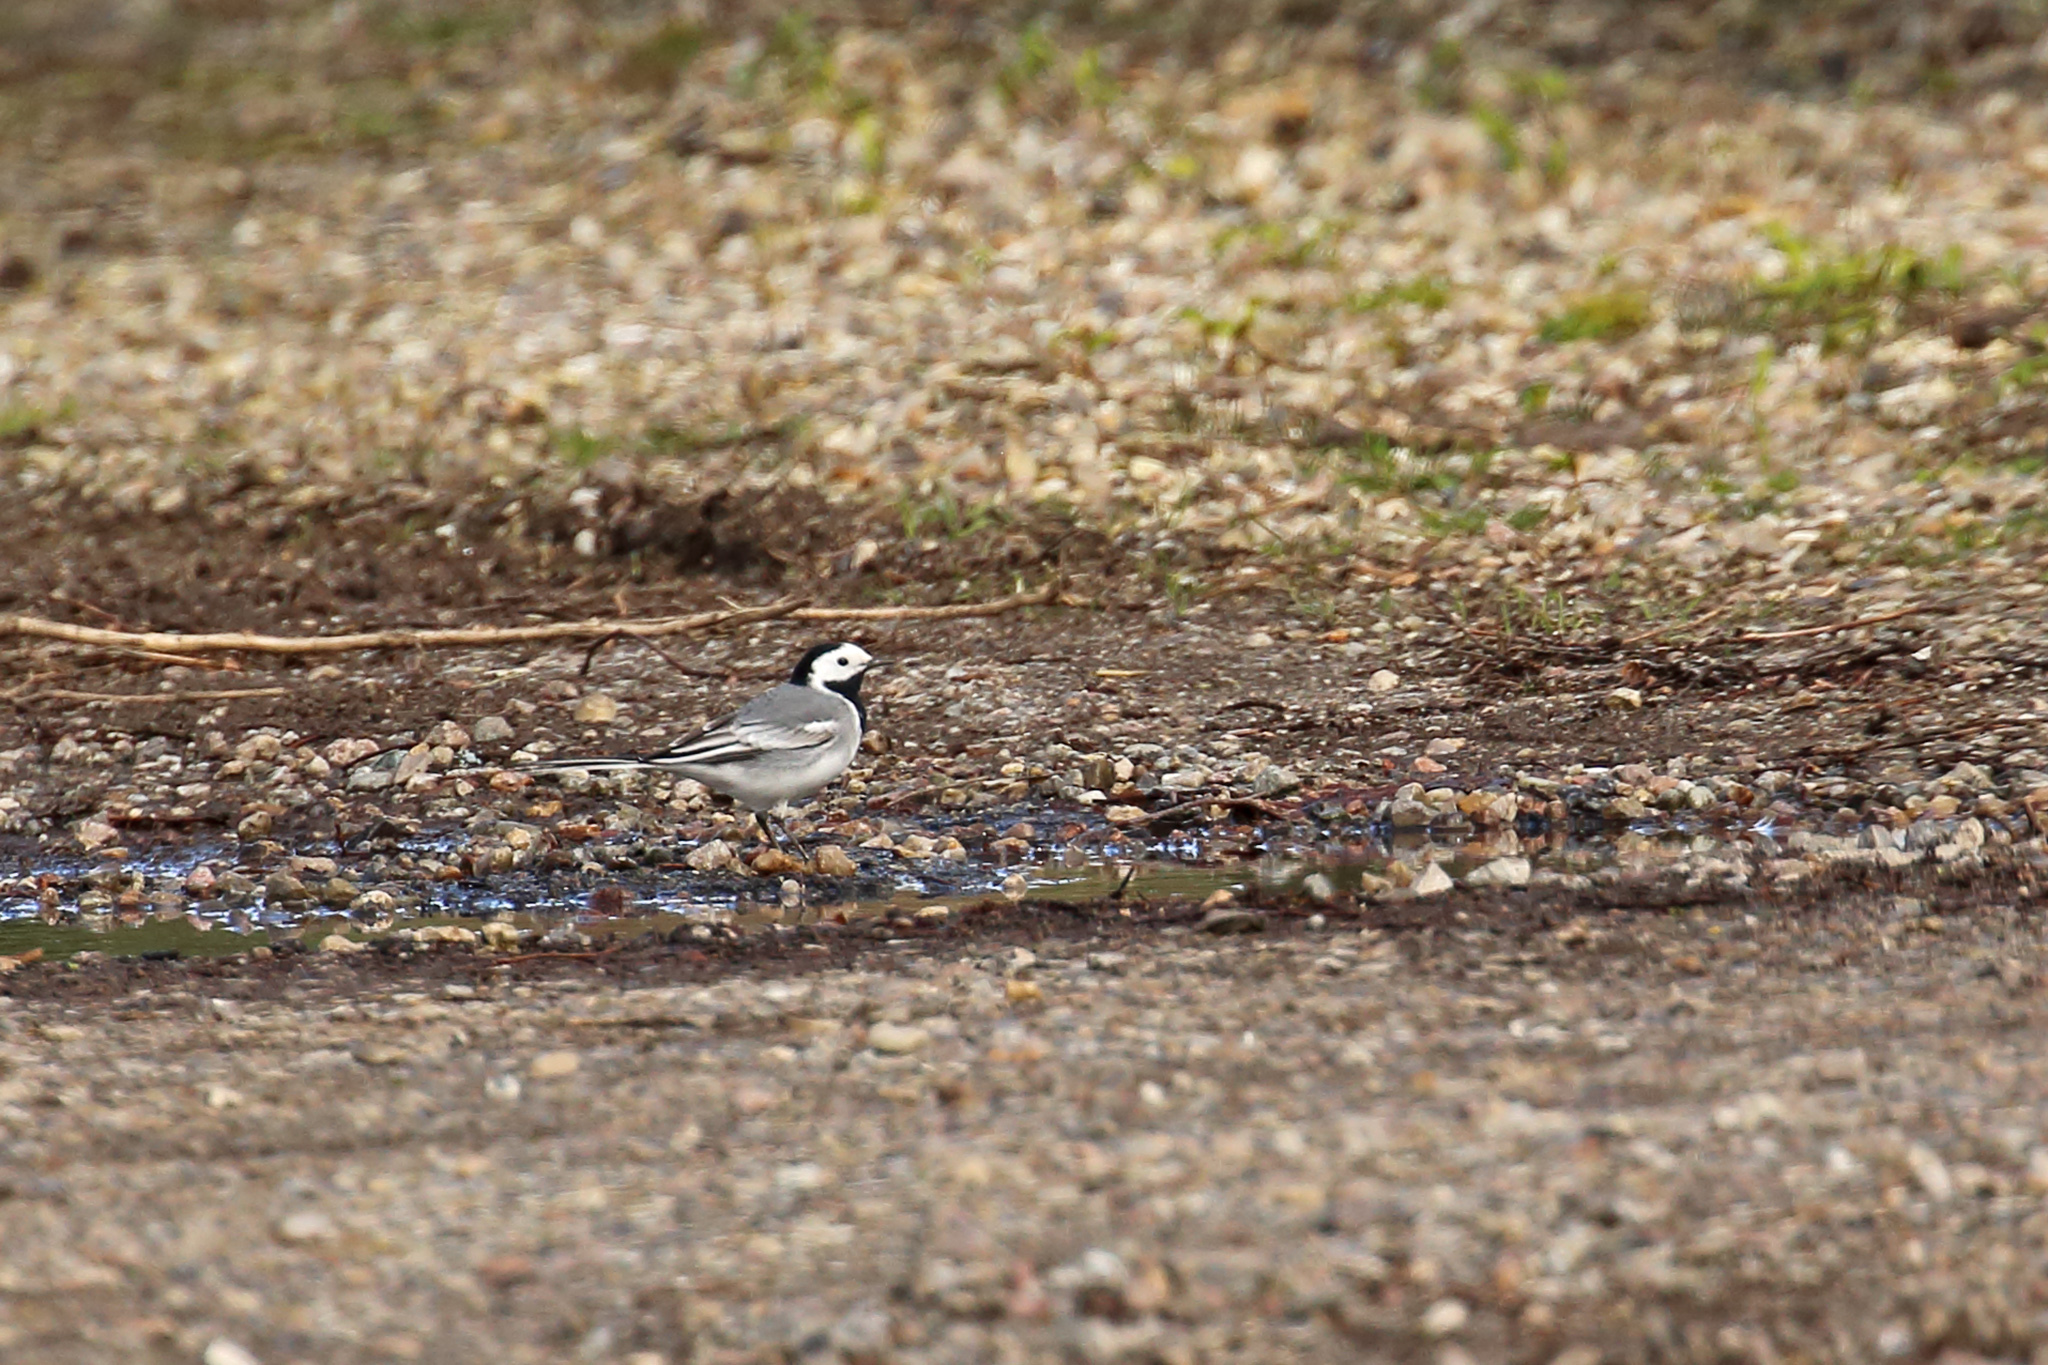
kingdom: Animalia
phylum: Chordata
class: Aves
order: Passeriformes
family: Motacillidae
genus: Motacilla
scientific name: Motacilla alba
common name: White wagtail
